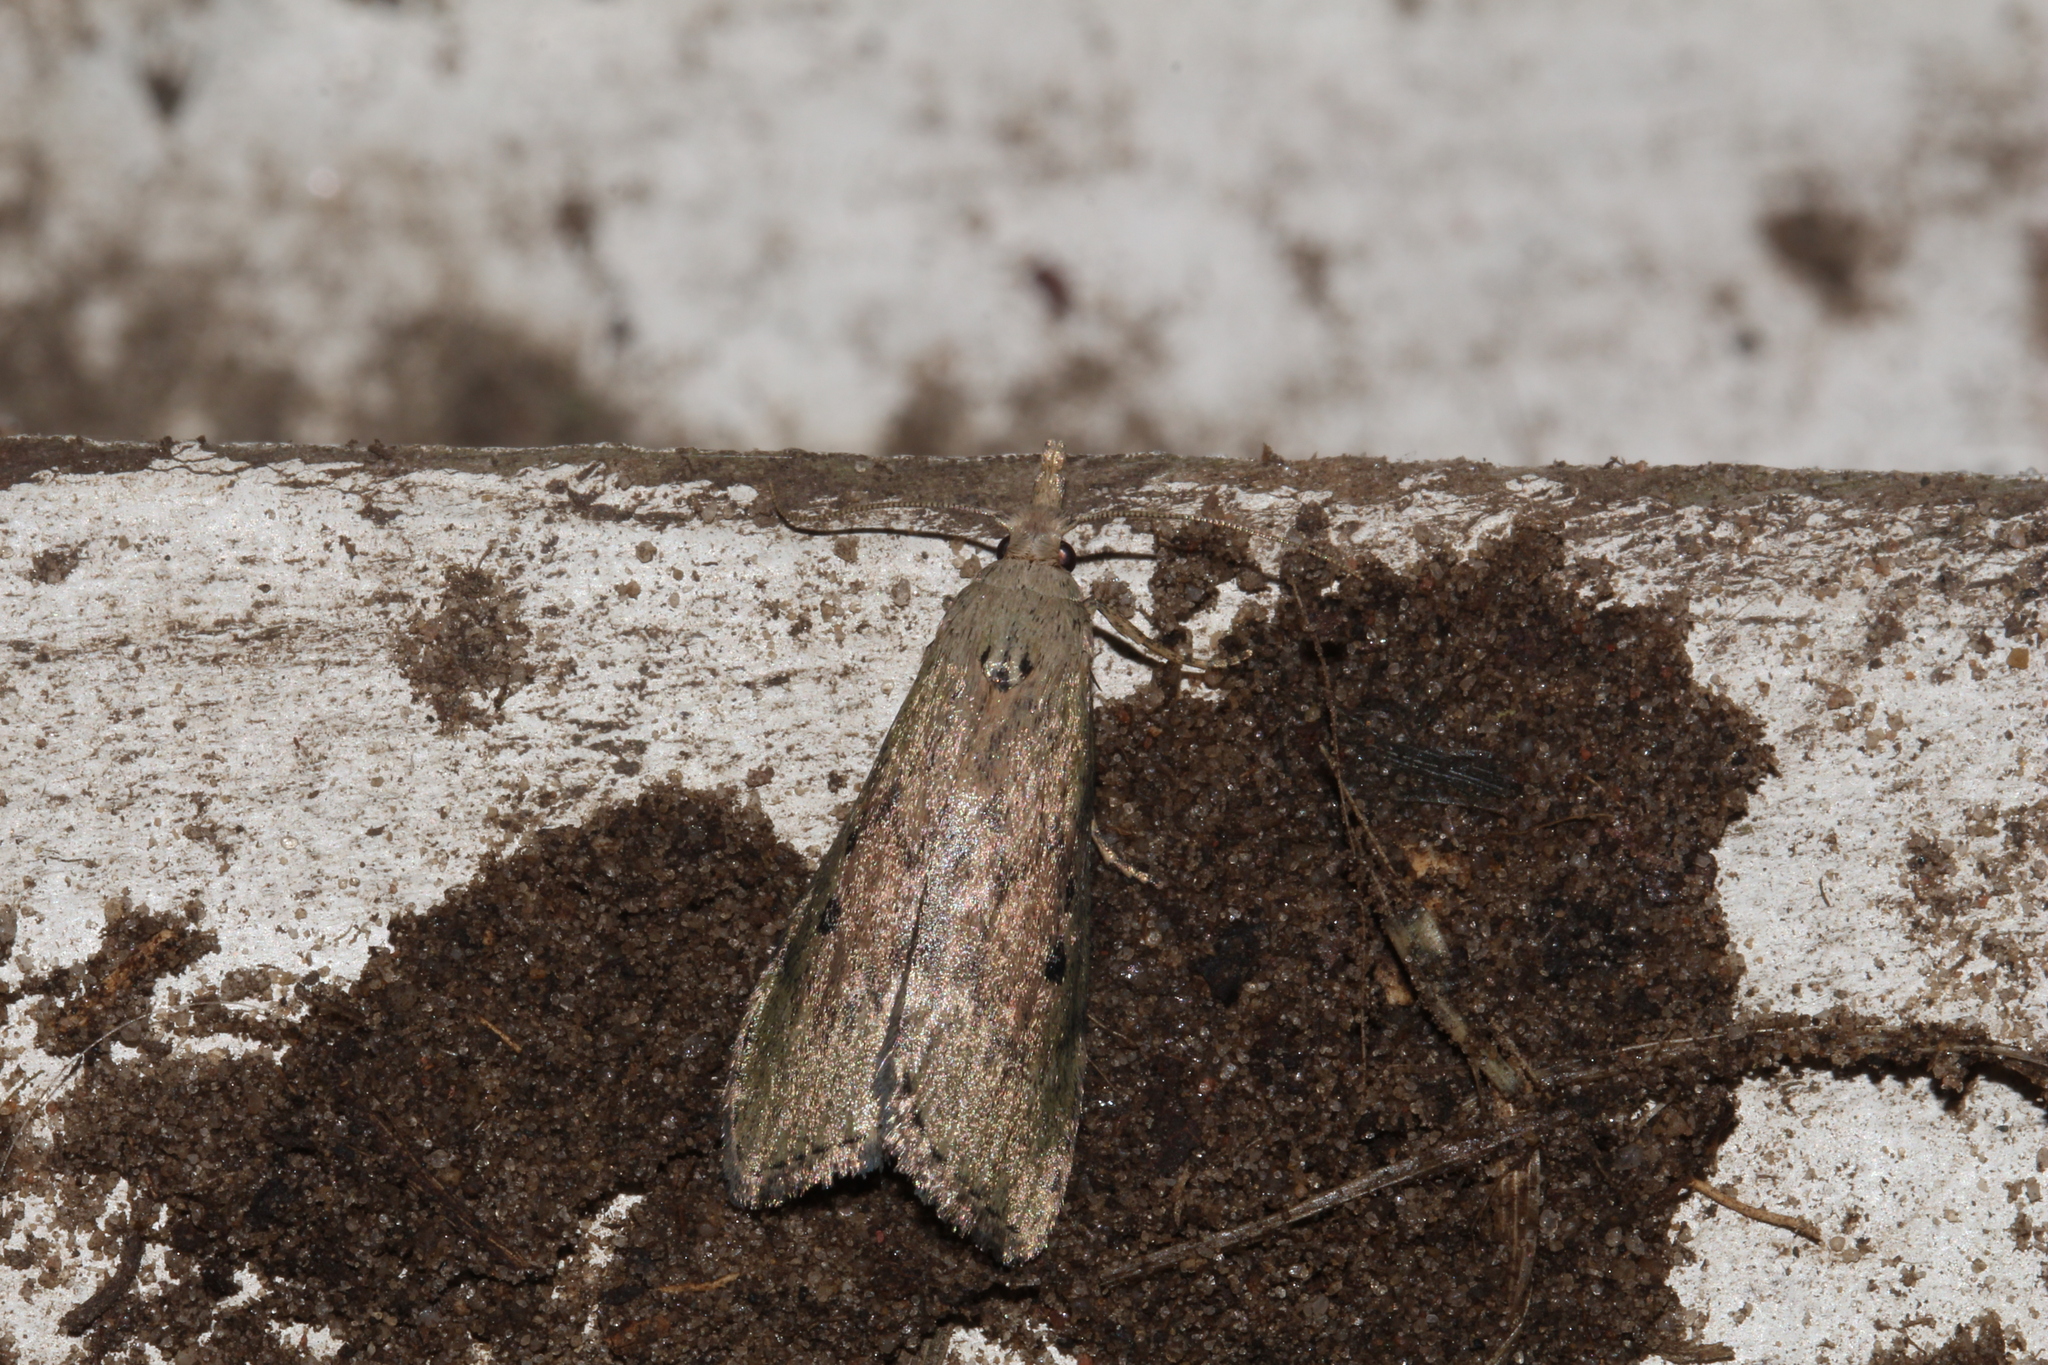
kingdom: Animalia
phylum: Arthropoda
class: Insecta
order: Lepidoptera
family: Pyralidae
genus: Aphomia
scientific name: Aphomia sociella
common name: Bee moth
